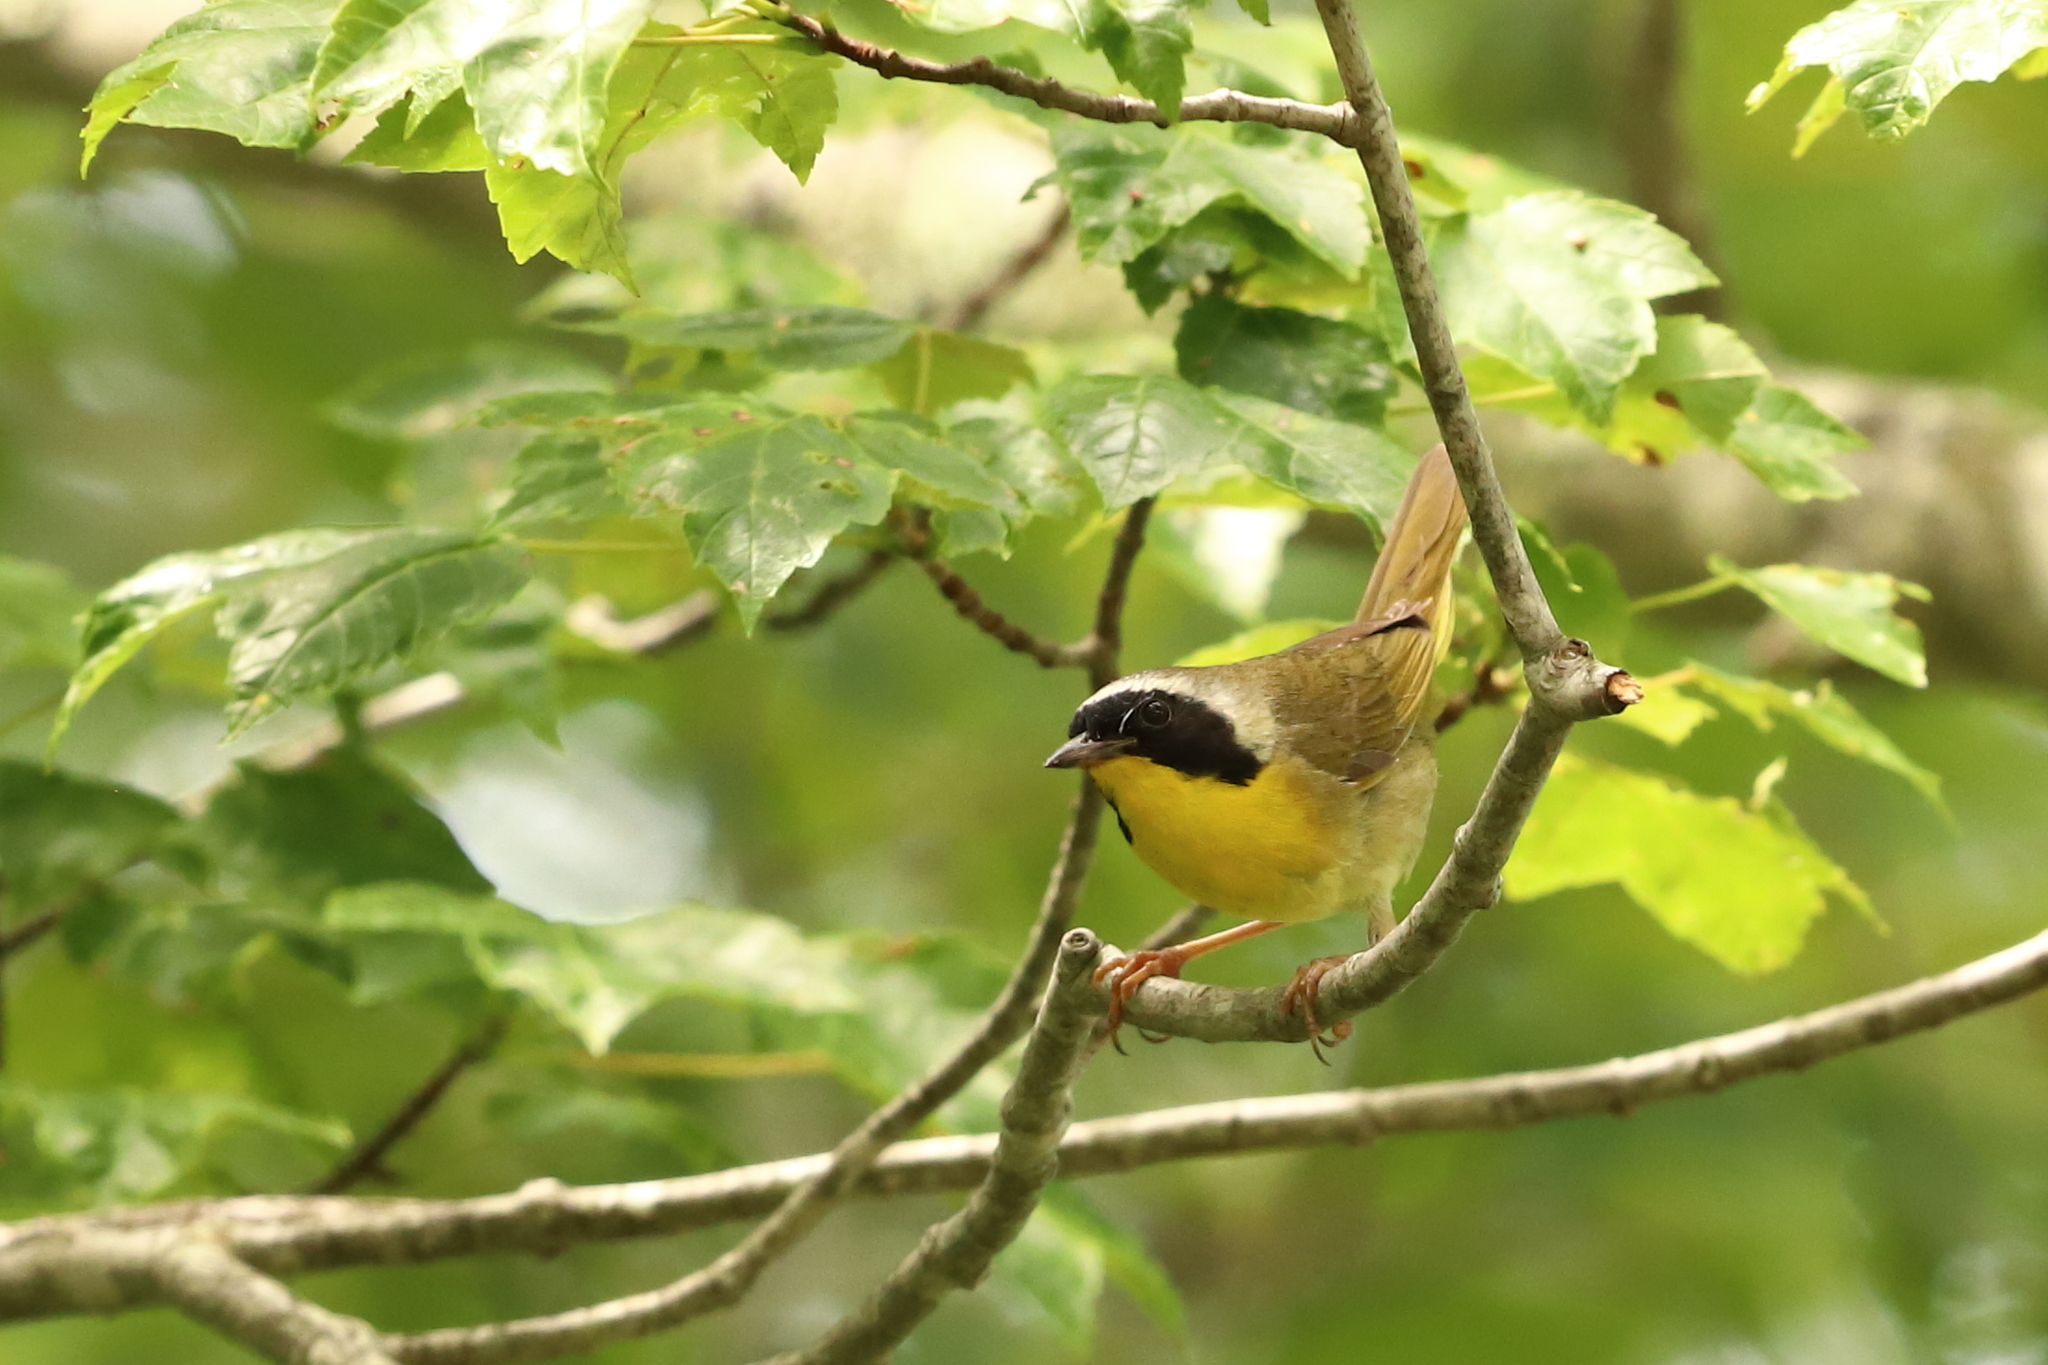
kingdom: Animalia
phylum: Chordata
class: Aves
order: Passeriformes
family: Parulidae
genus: Geothlypis
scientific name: Geothlypis trichas
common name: Common yellowthroat
